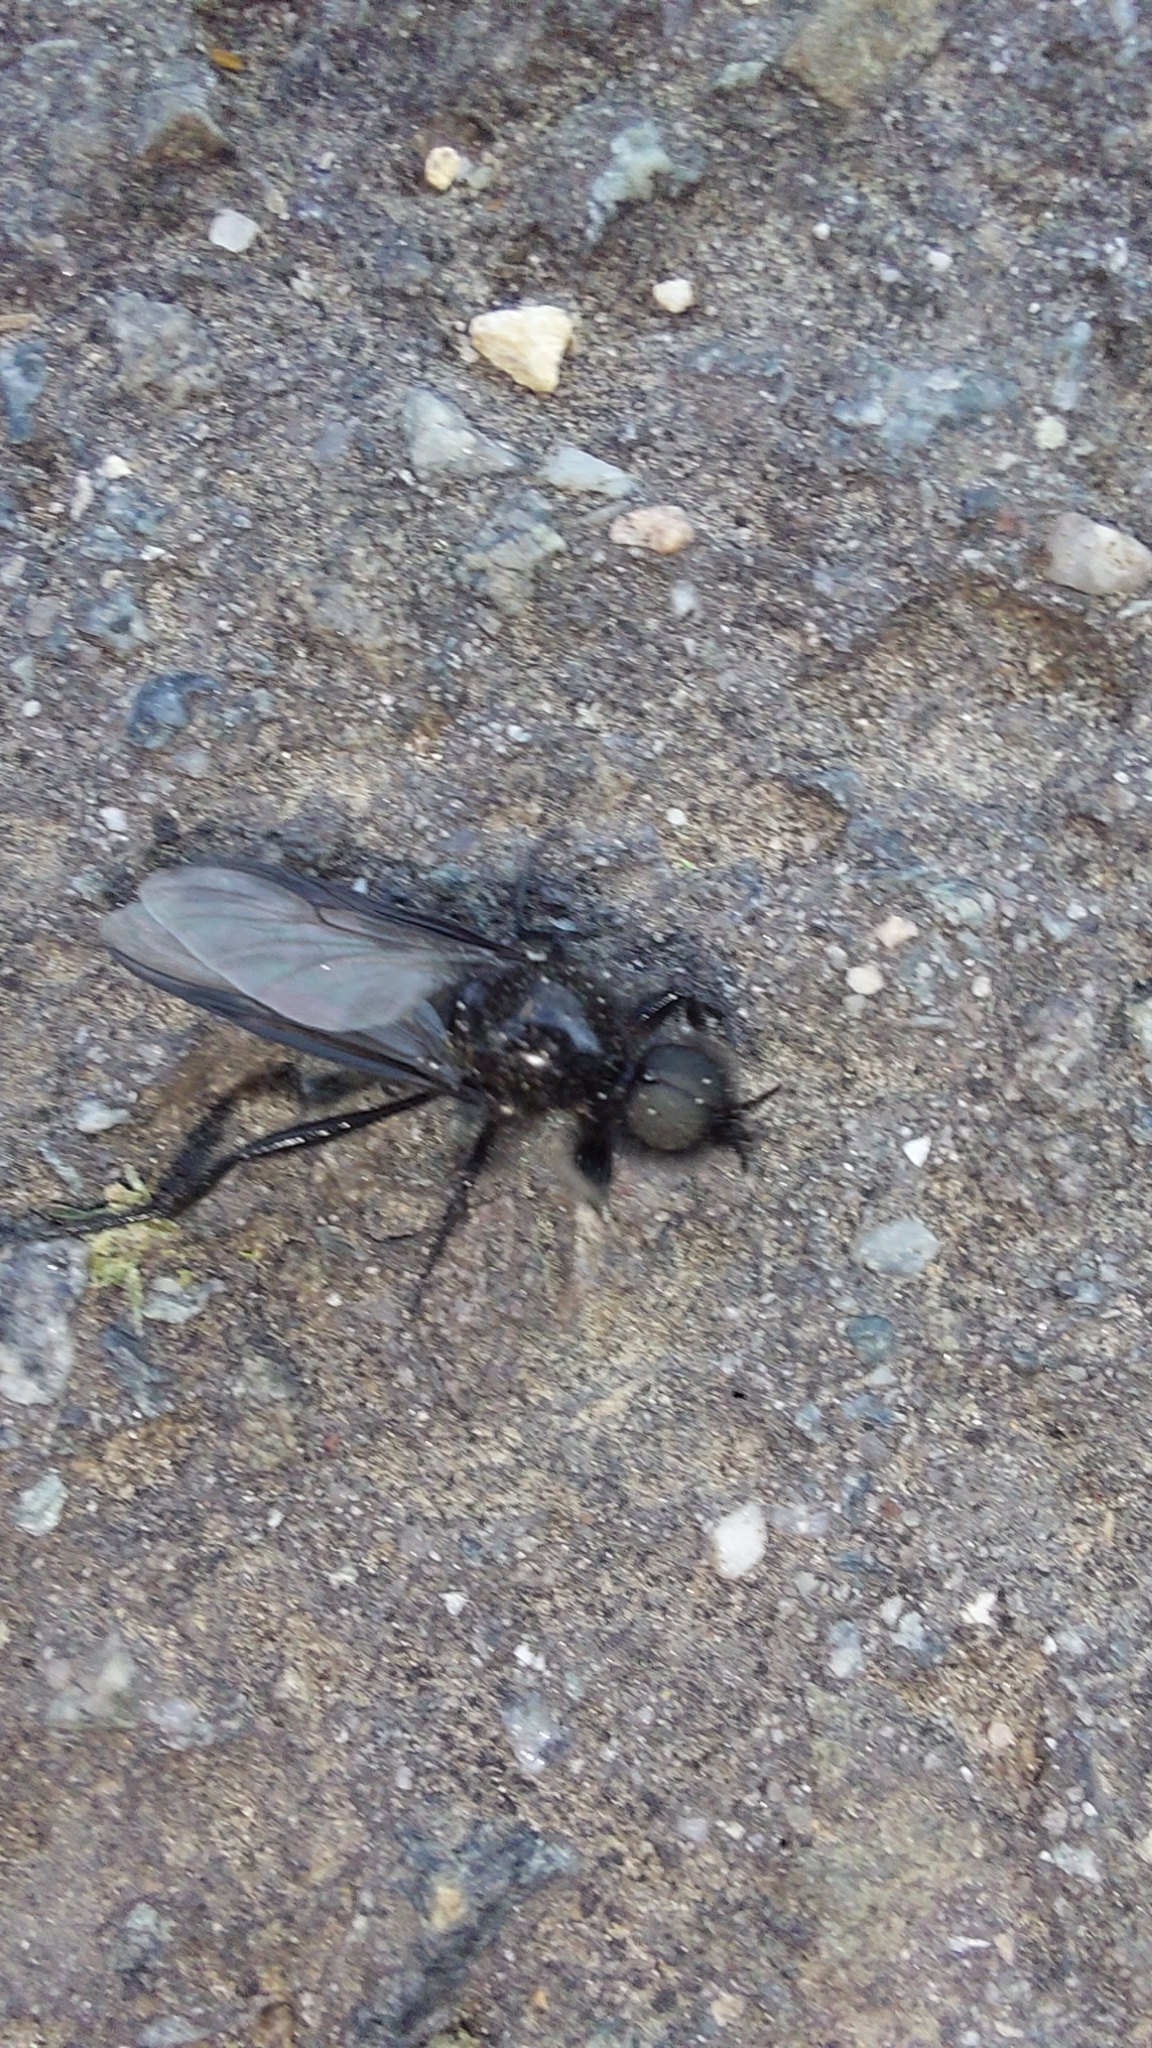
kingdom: Animalia
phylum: Arthropoda
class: Insecta
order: Diptera
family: Bibionidae
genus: Bibio
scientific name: Bibio marci
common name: St marks fly
